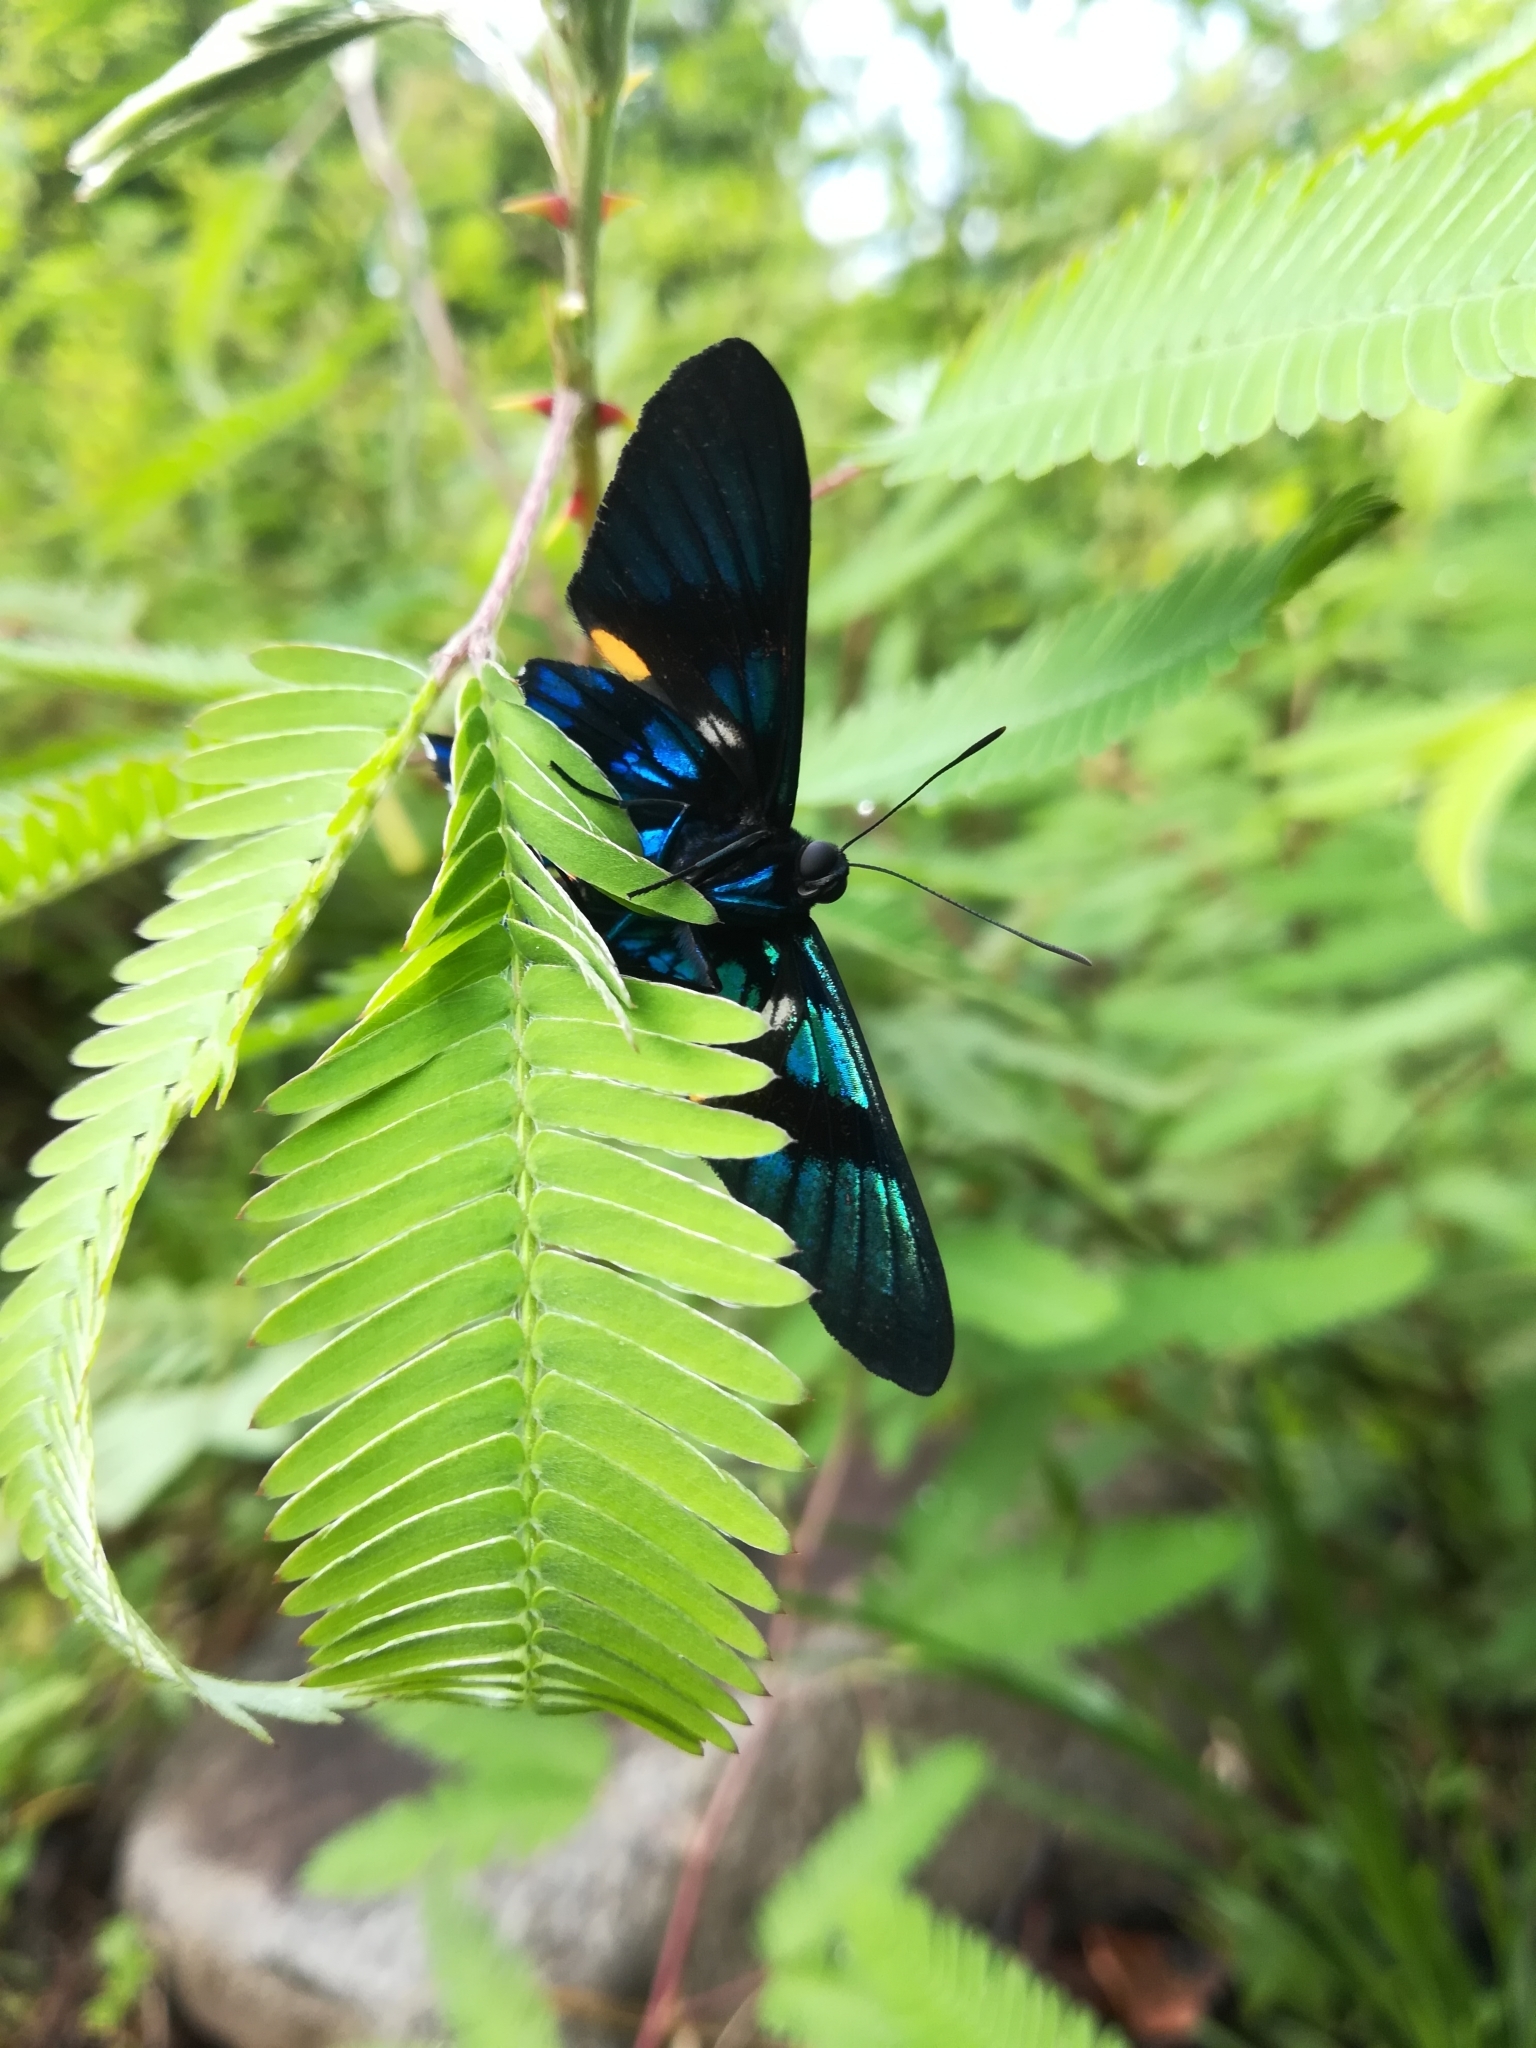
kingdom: Animalia
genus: Ancyluris
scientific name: Ancyluris inca
